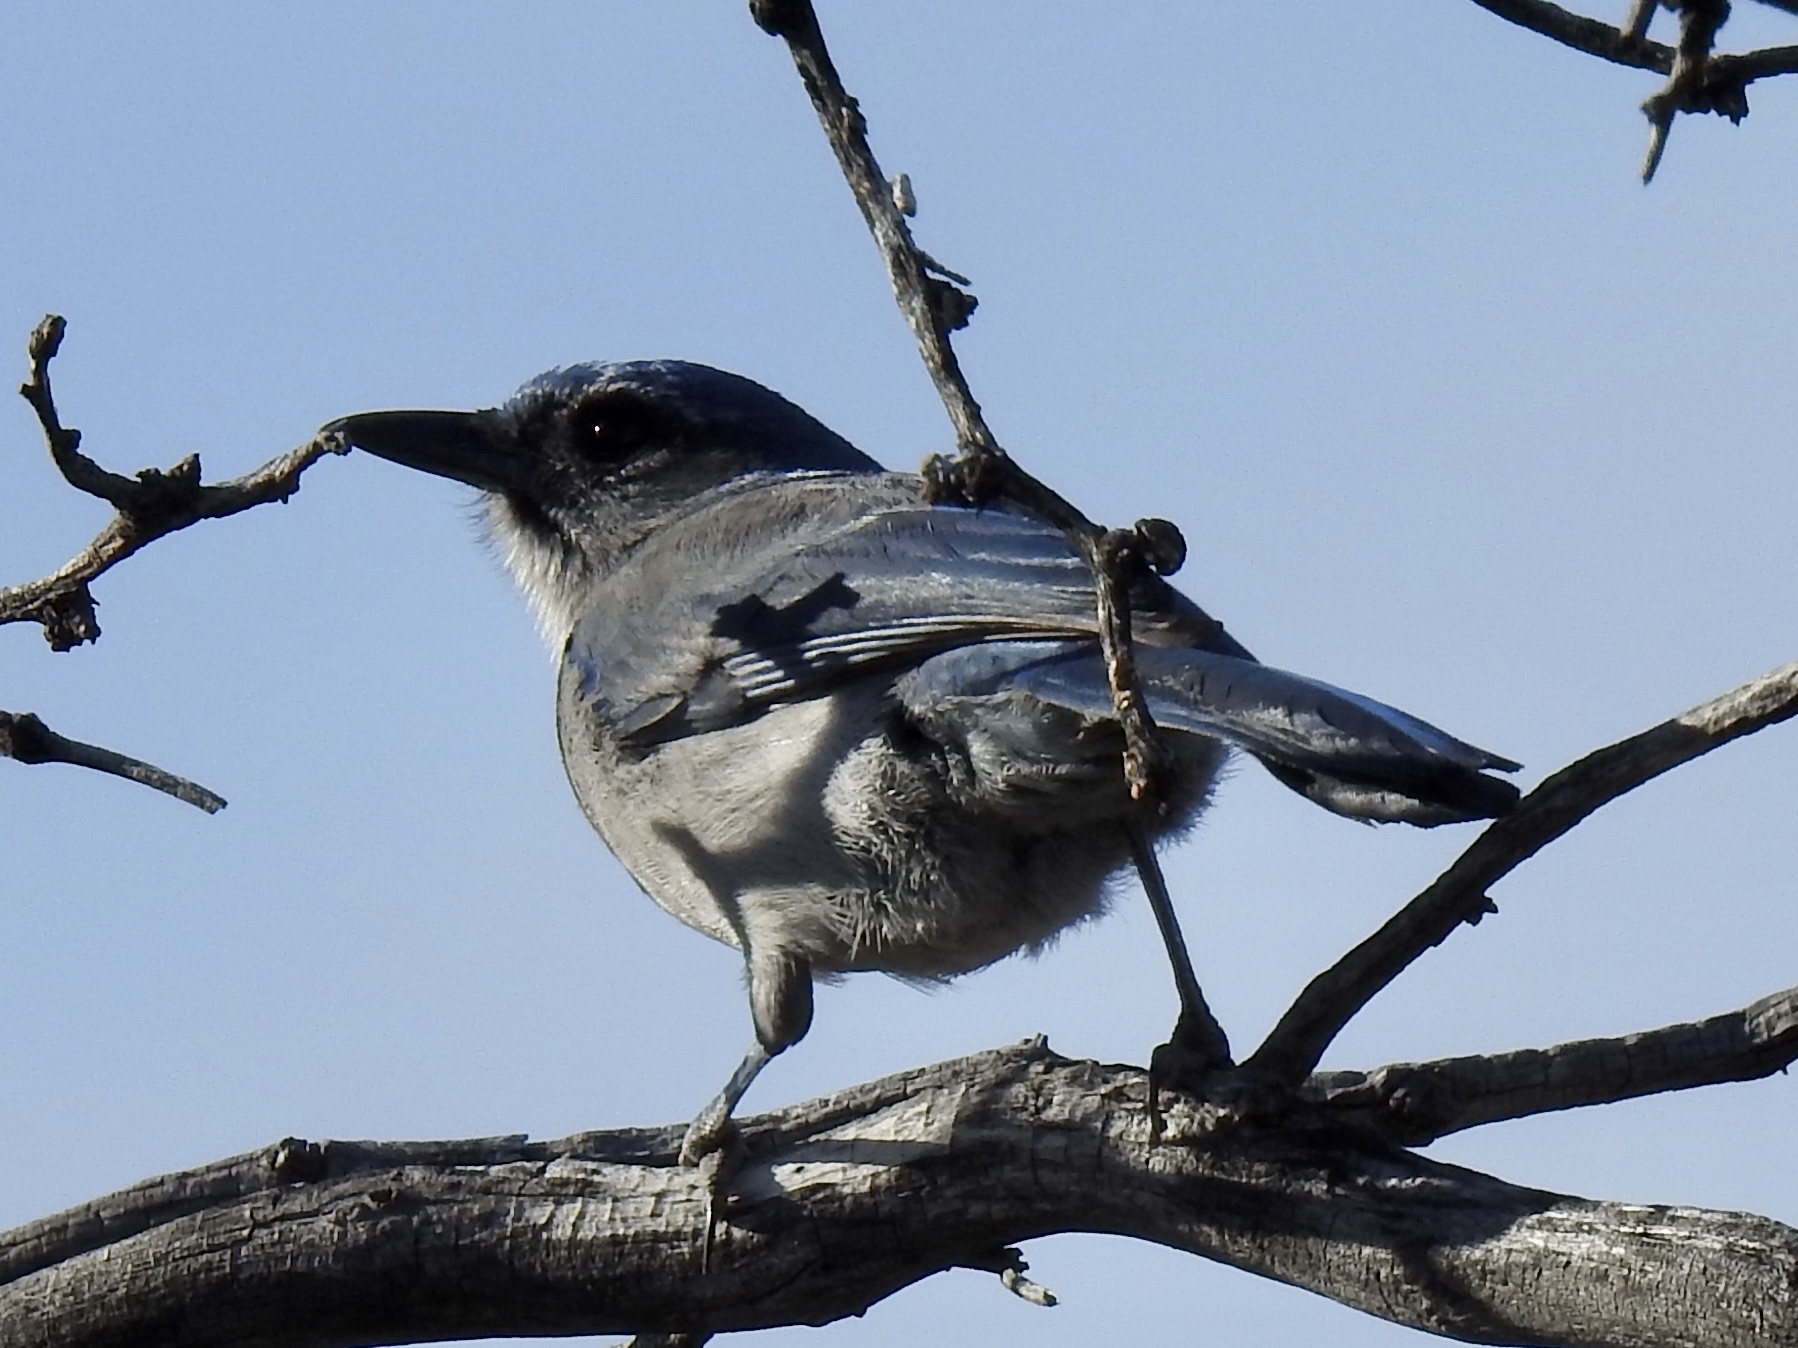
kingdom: Animalia
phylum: Chordata
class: Aves
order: Passeriformes
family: Corvidae
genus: Aphelocoma
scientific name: Aphelocoma woodhouseii
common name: Woodhouse's scrub-jay
